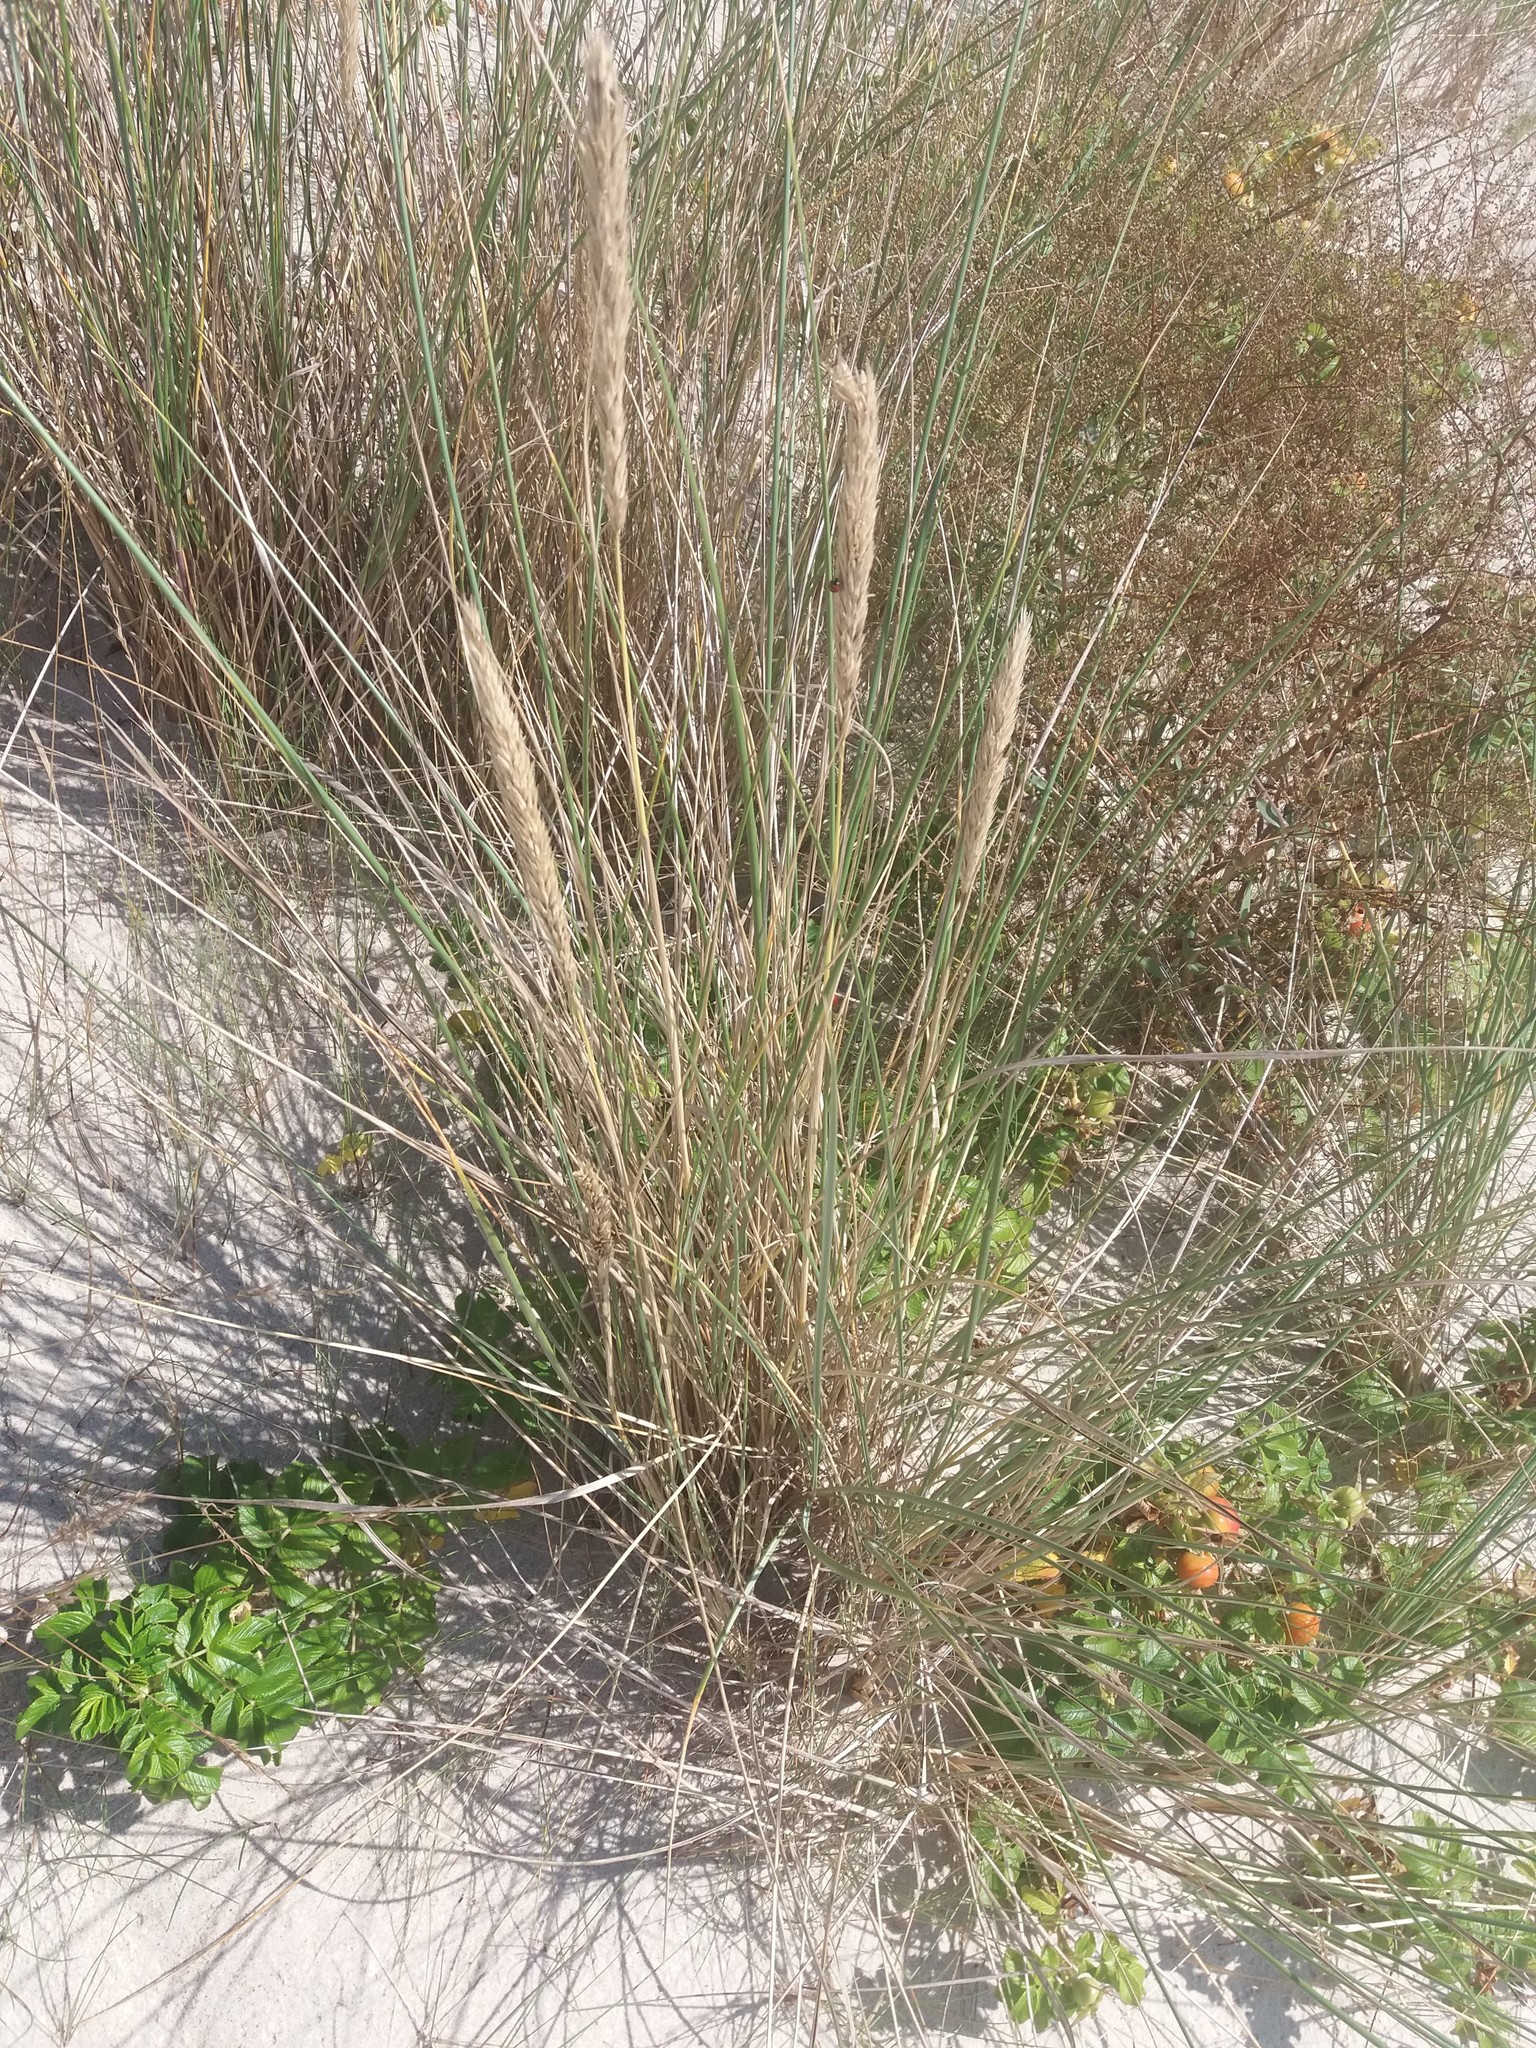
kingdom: Plantae
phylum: Tracheophyta
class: Liliopsida
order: Poales
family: Poaceae
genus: Calamagrostis
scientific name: Calamagrostis arenaria
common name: European beachgrass
